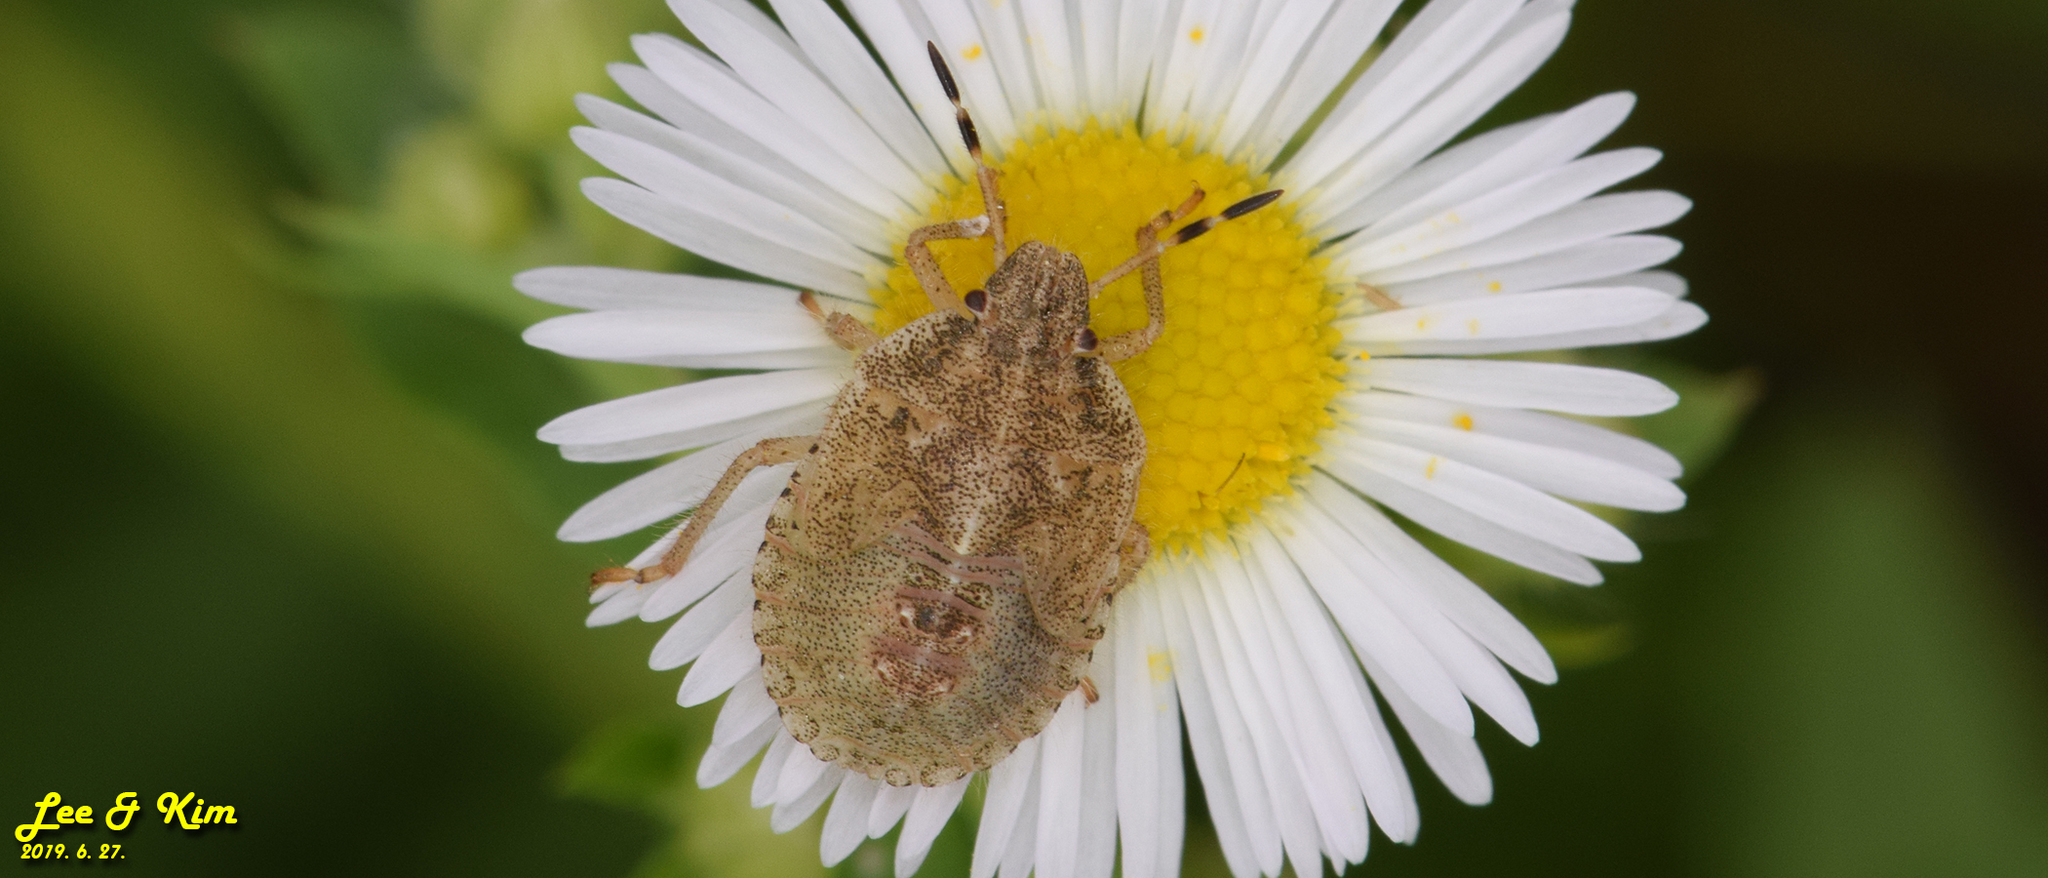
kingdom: Animalia
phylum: Arthropoda
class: Insecta
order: Hemiptera
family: Pentatomidae
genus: Dolycoris
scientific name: Dolycoris baccarum
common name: Sloe bug
